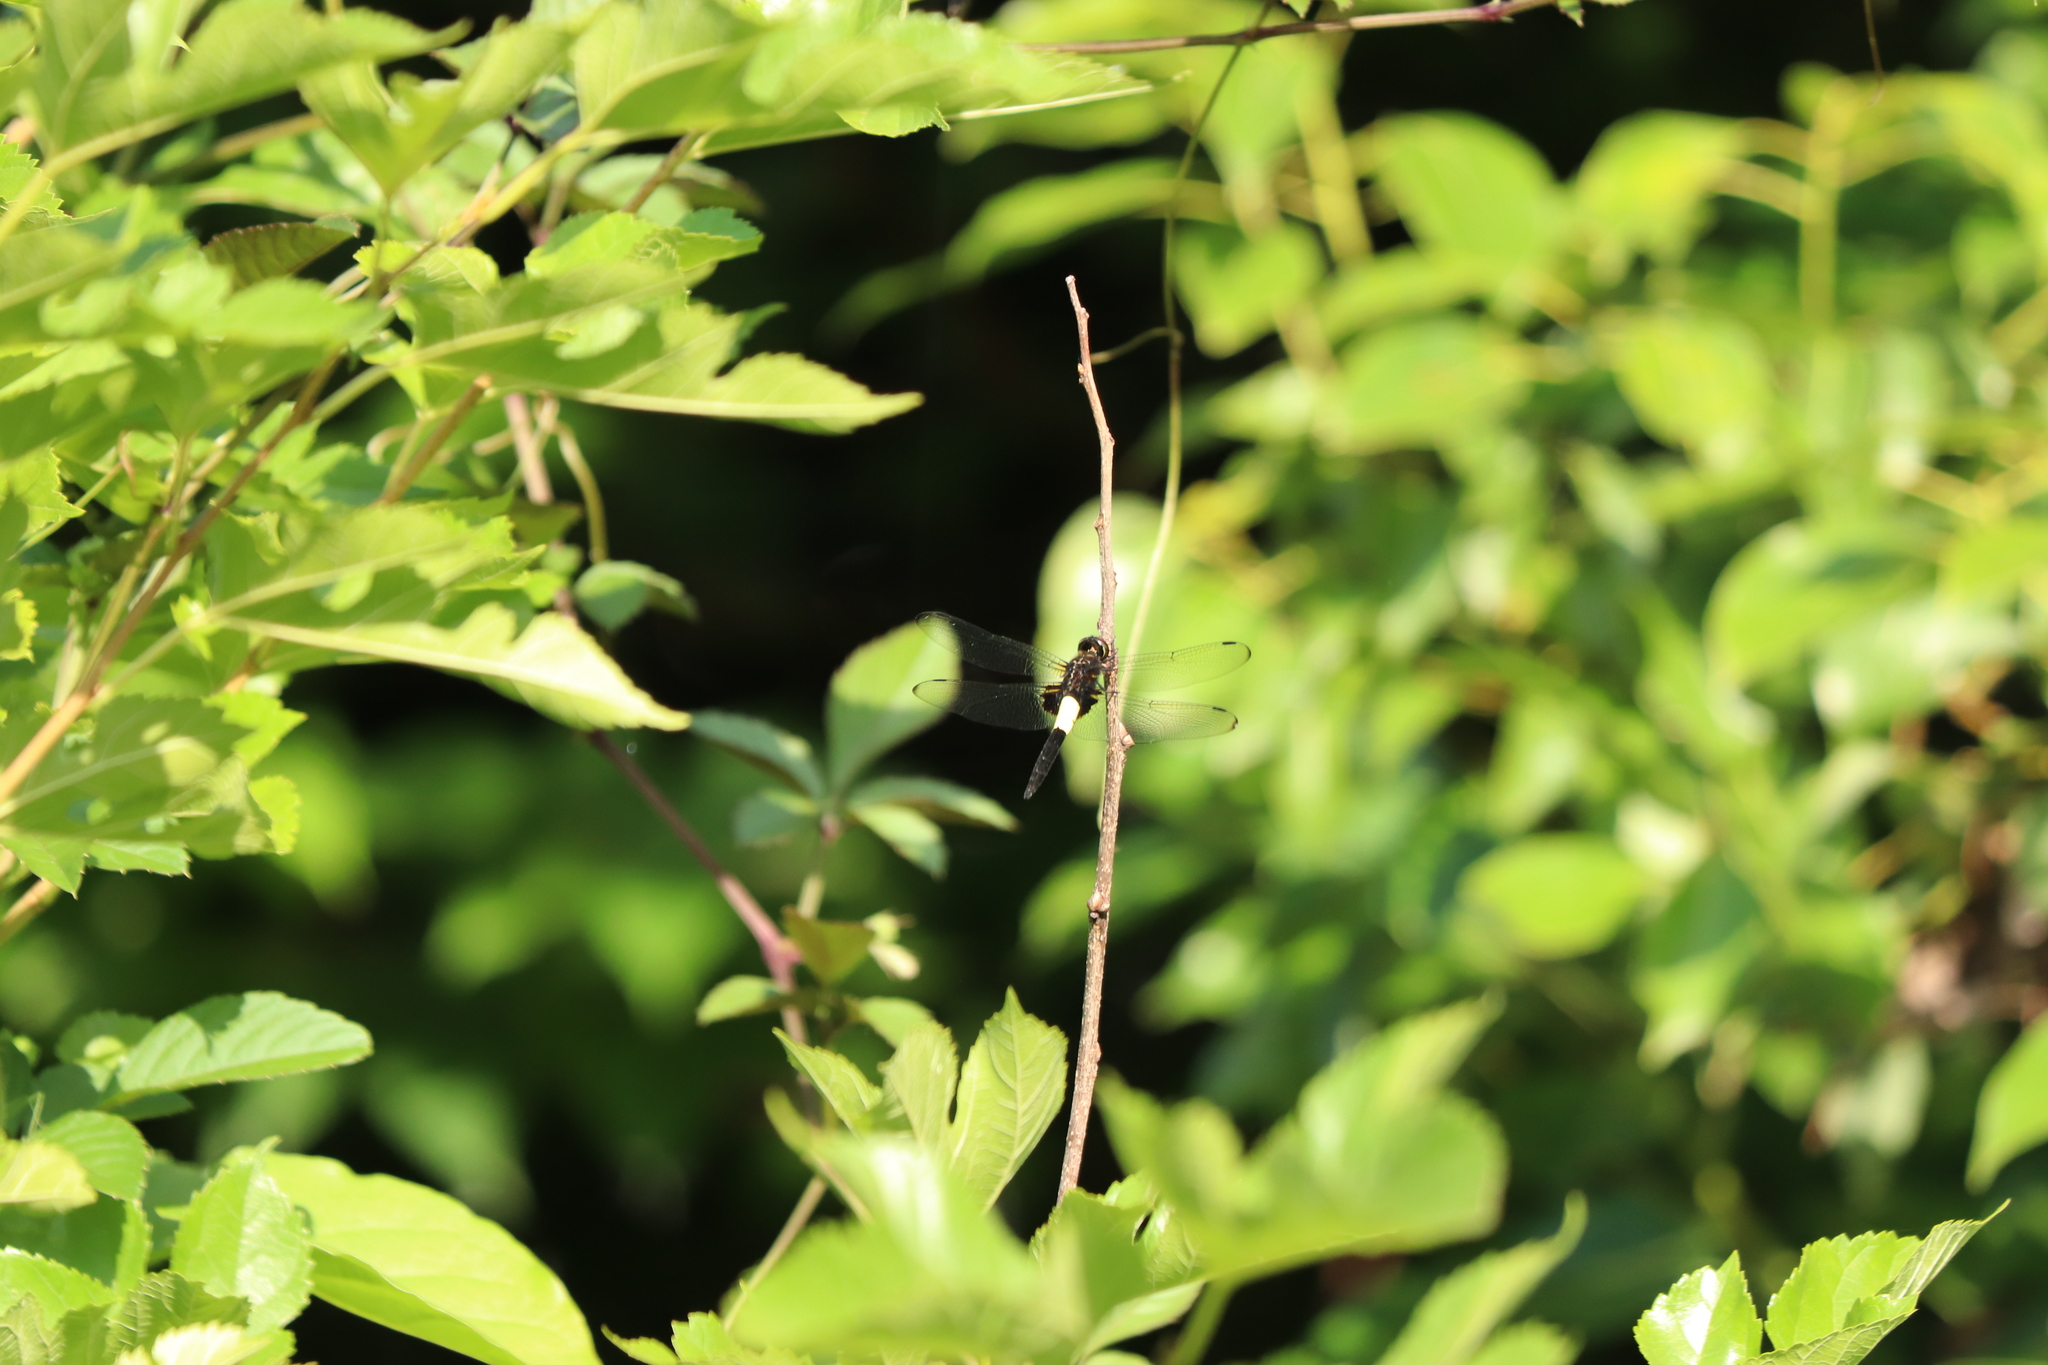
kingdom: Animalia
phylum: Arthropoda
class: Insecta
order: Odonata
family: Libellulidae
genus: Pseudothemis
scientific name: Pseudothemis zonata
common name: Pied skimmer
